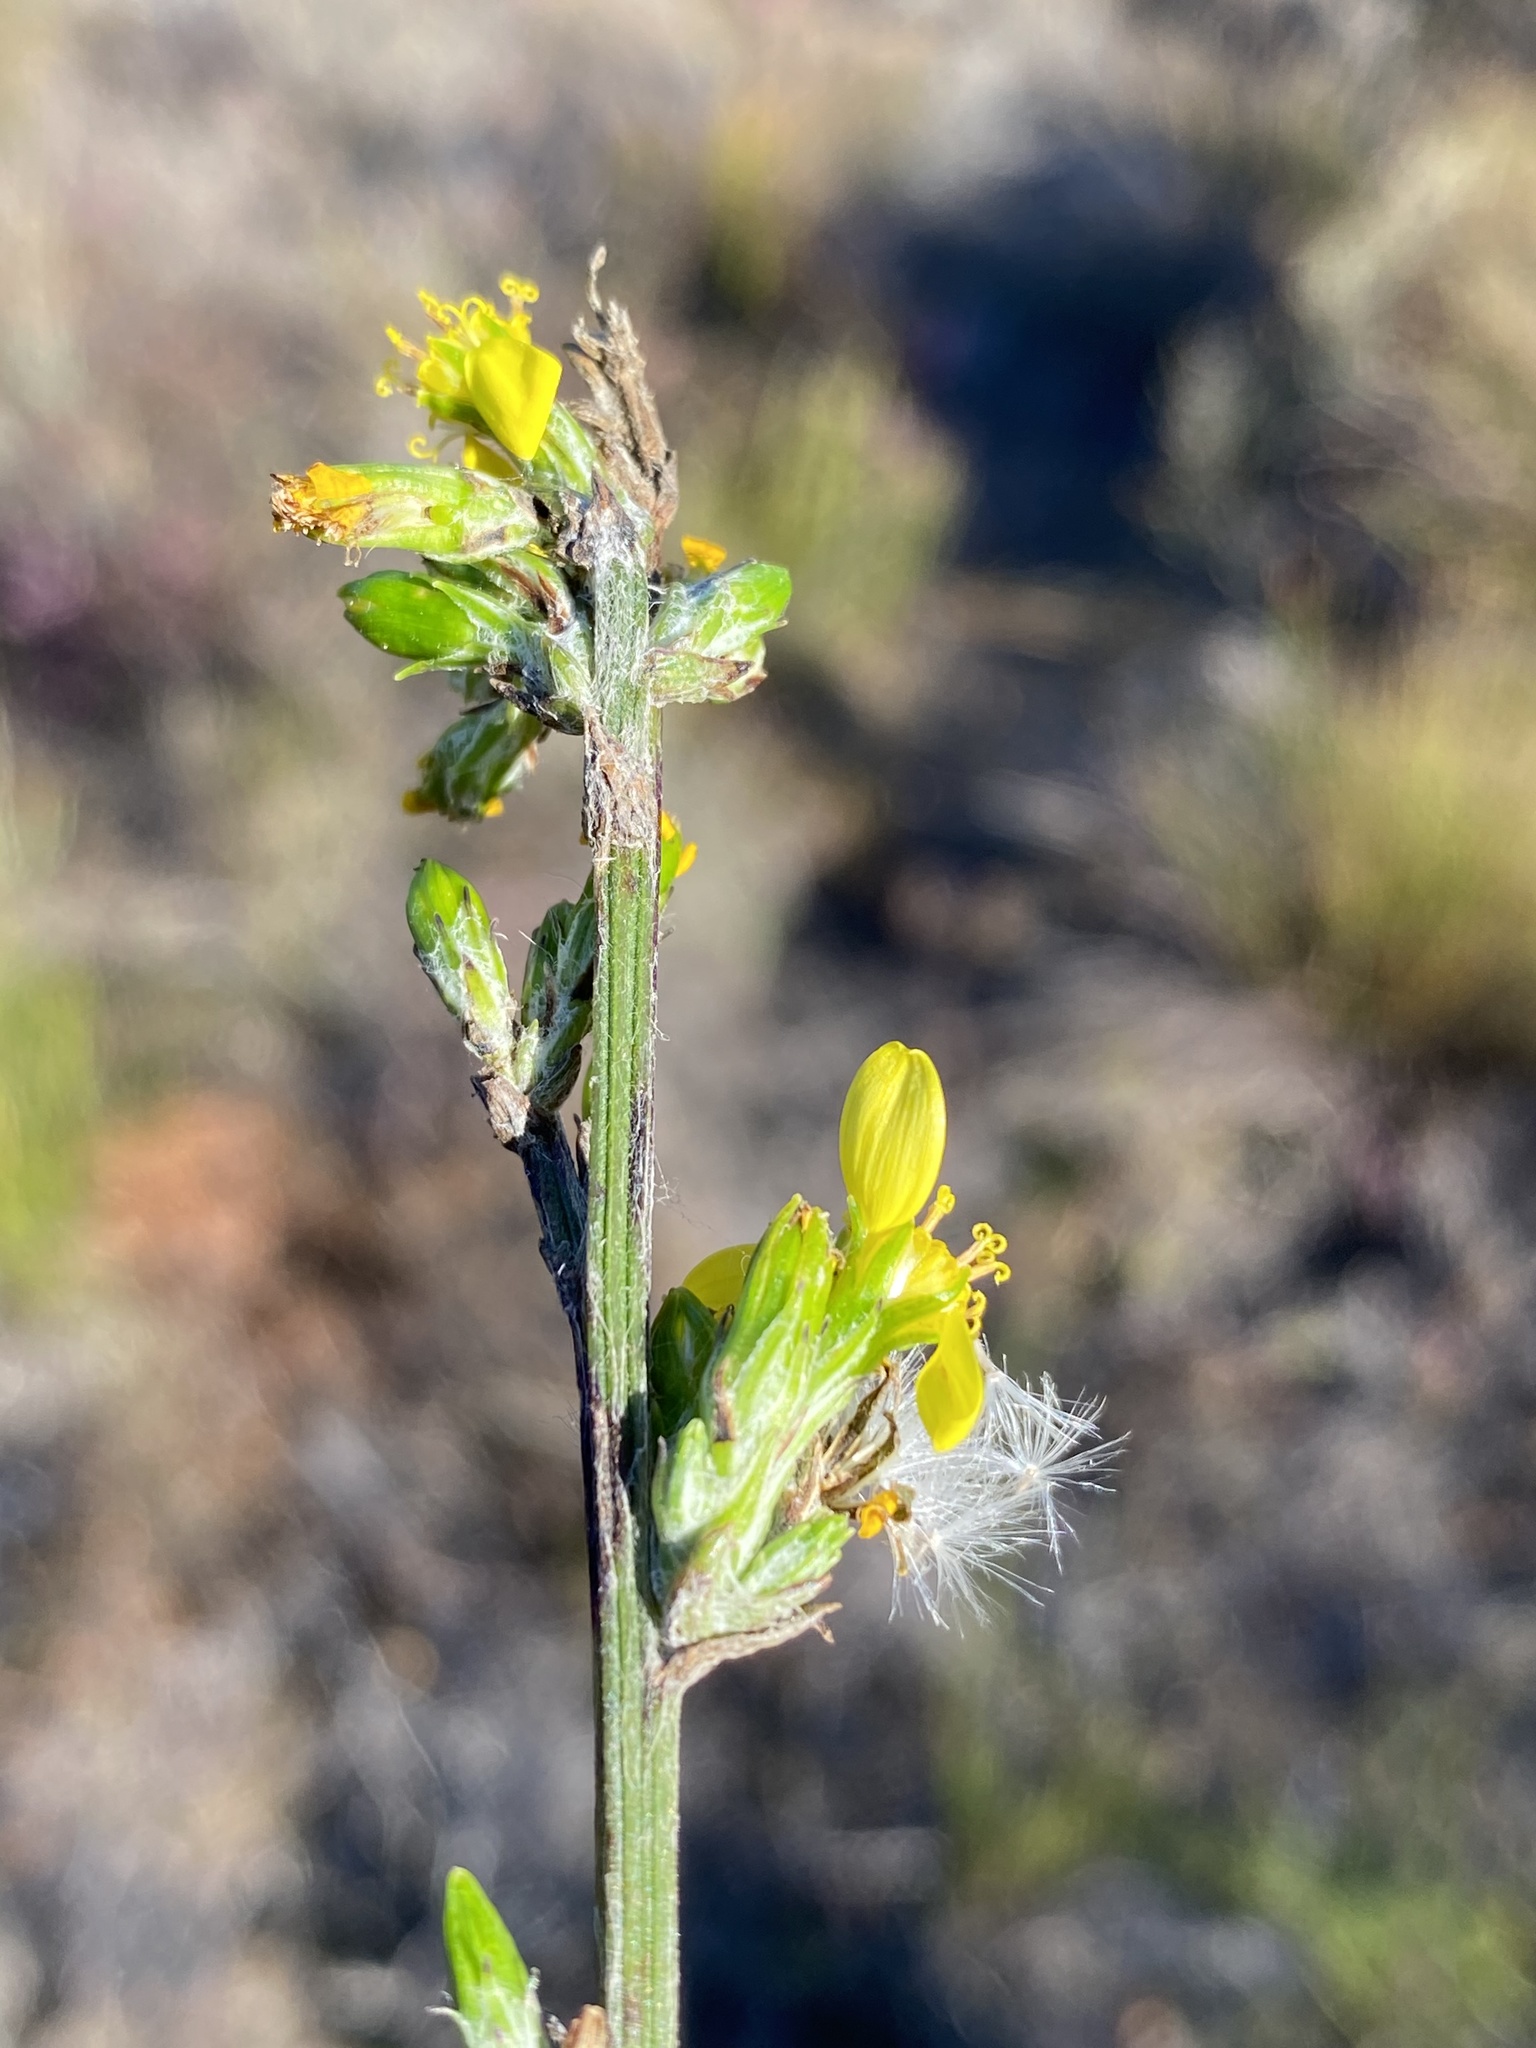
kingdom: Plantae
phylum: Tracheophyta
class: Magnoliopsida
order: Asterales
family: Asteraceae
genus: Senecio
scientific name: Senecio pubigerus
